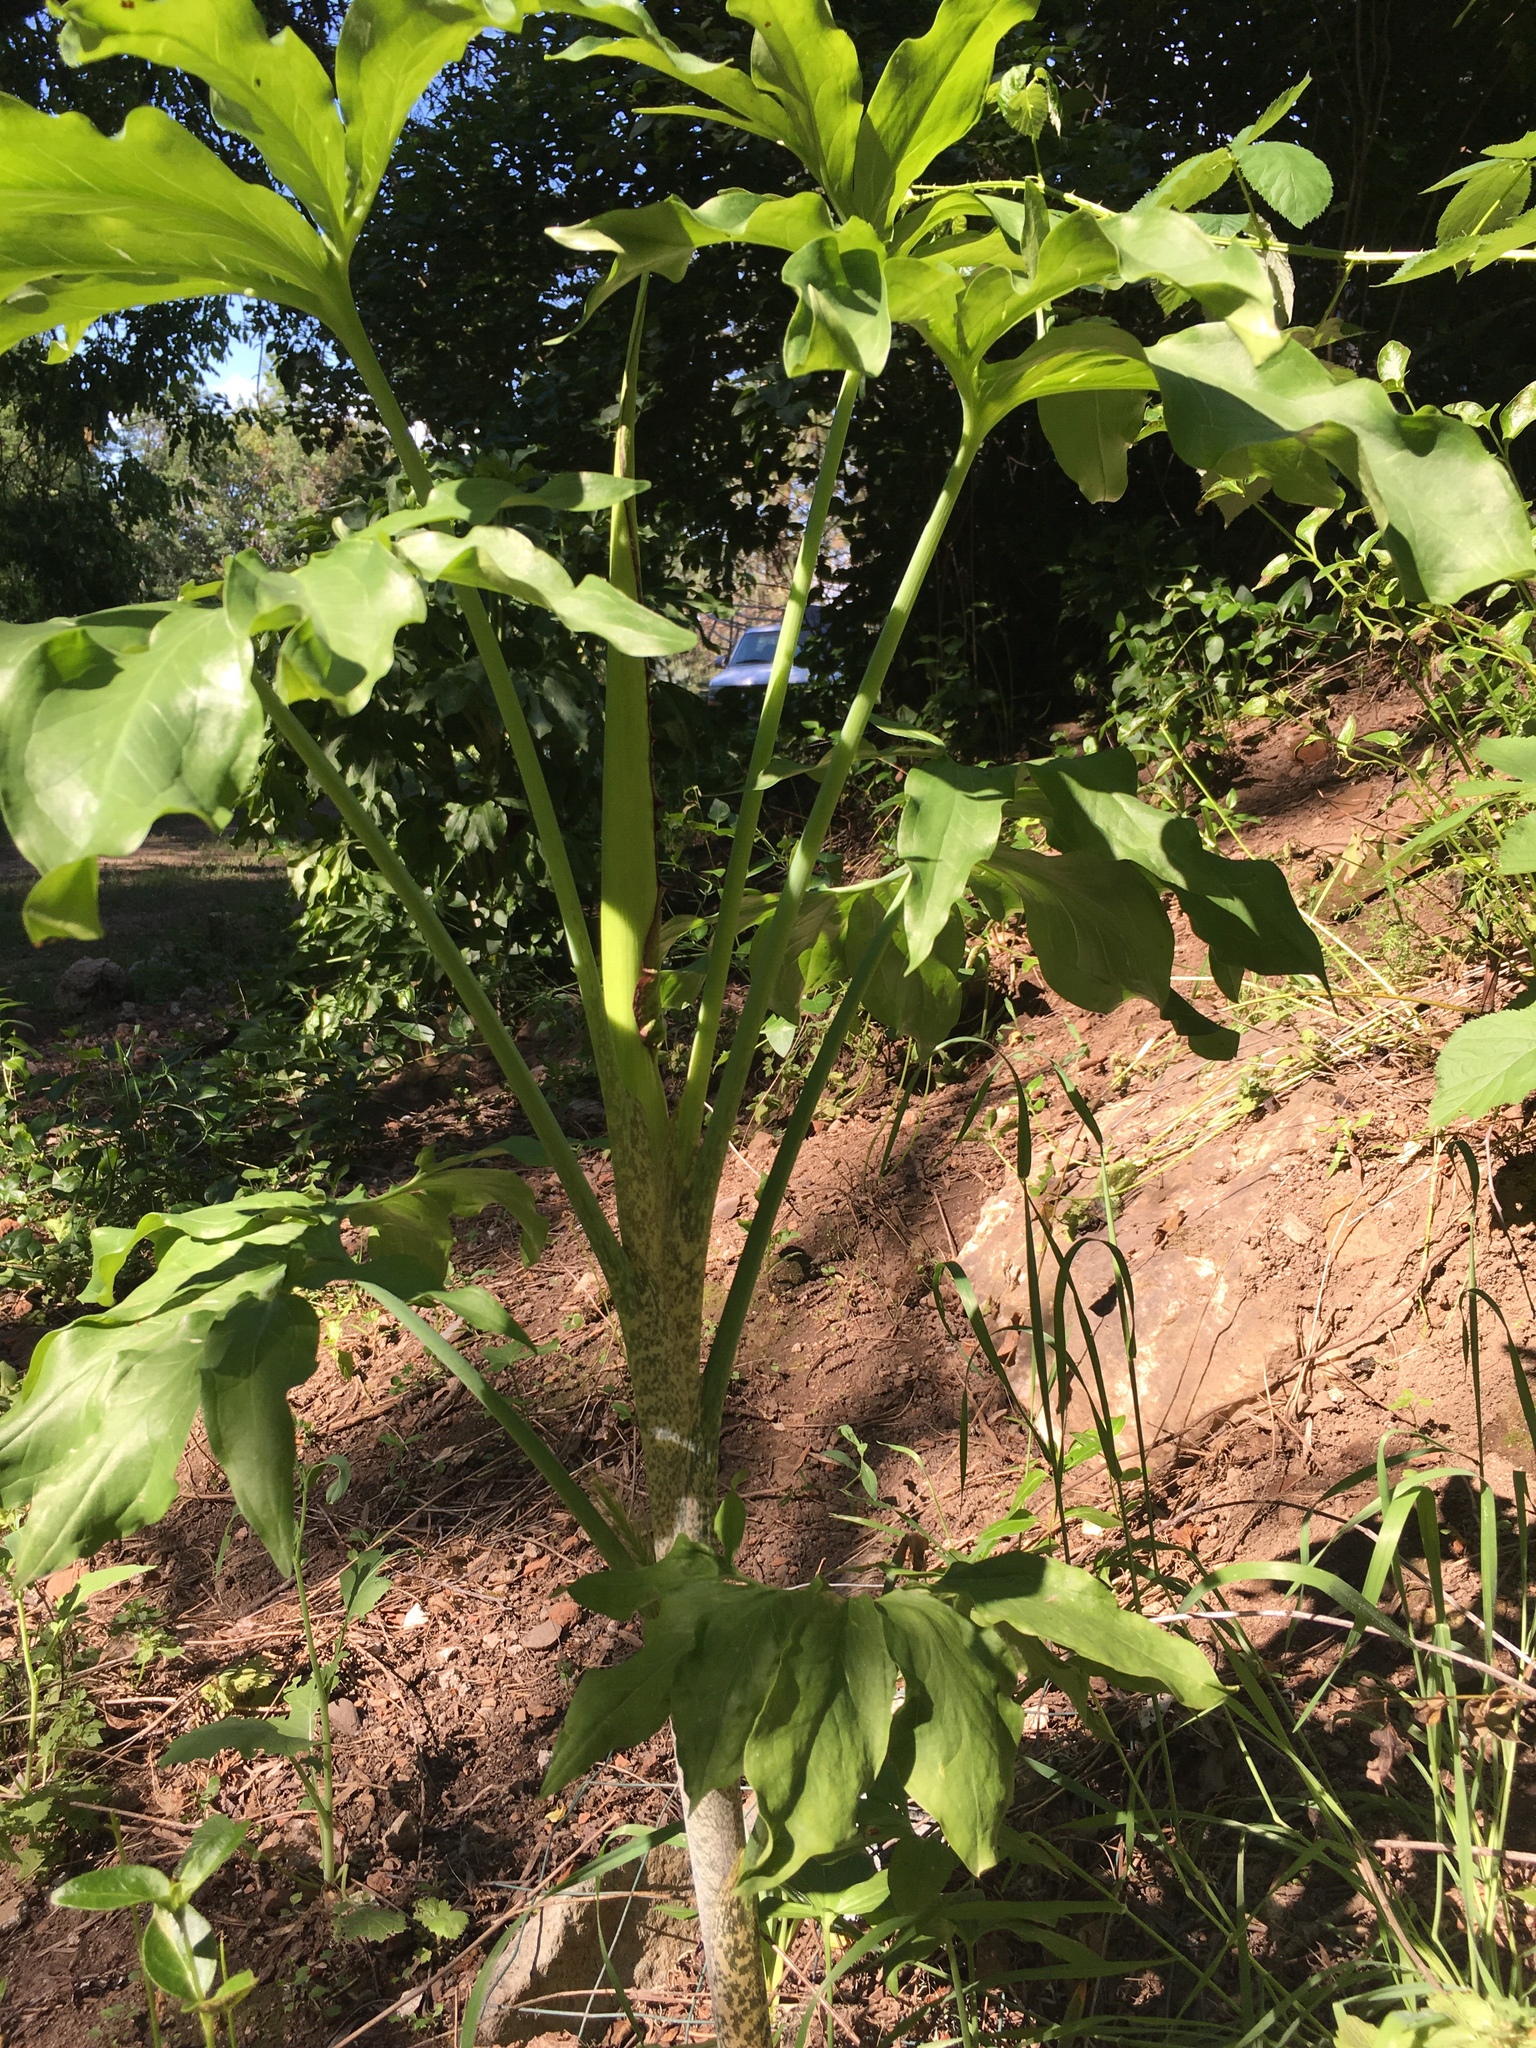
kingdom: Plantae
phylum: Tracheophyta
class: Liliopsida
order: Alismatales
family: Araceae
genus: Dracunculus
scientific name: Dracunculus vulgaris
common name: Dragon arum
